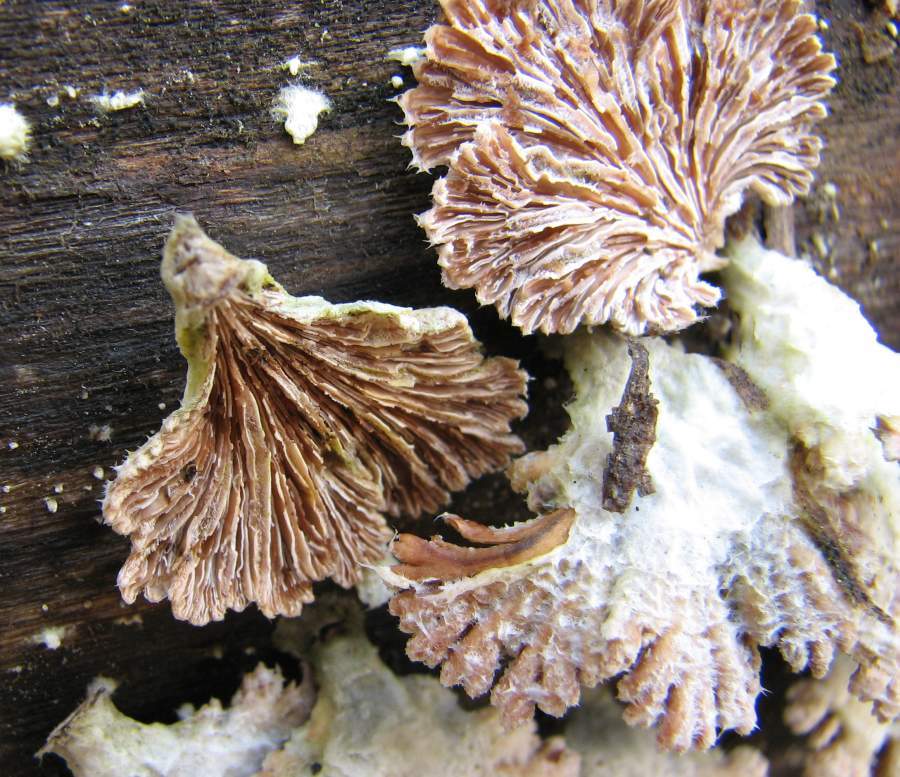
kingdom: Fungi
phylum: Basidiomycota
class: Agaricomycetes
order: Agaricales
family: Schizophyllaceae
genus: Schizophyllum
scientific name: Schizophyllum commune
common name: Common porecrust
